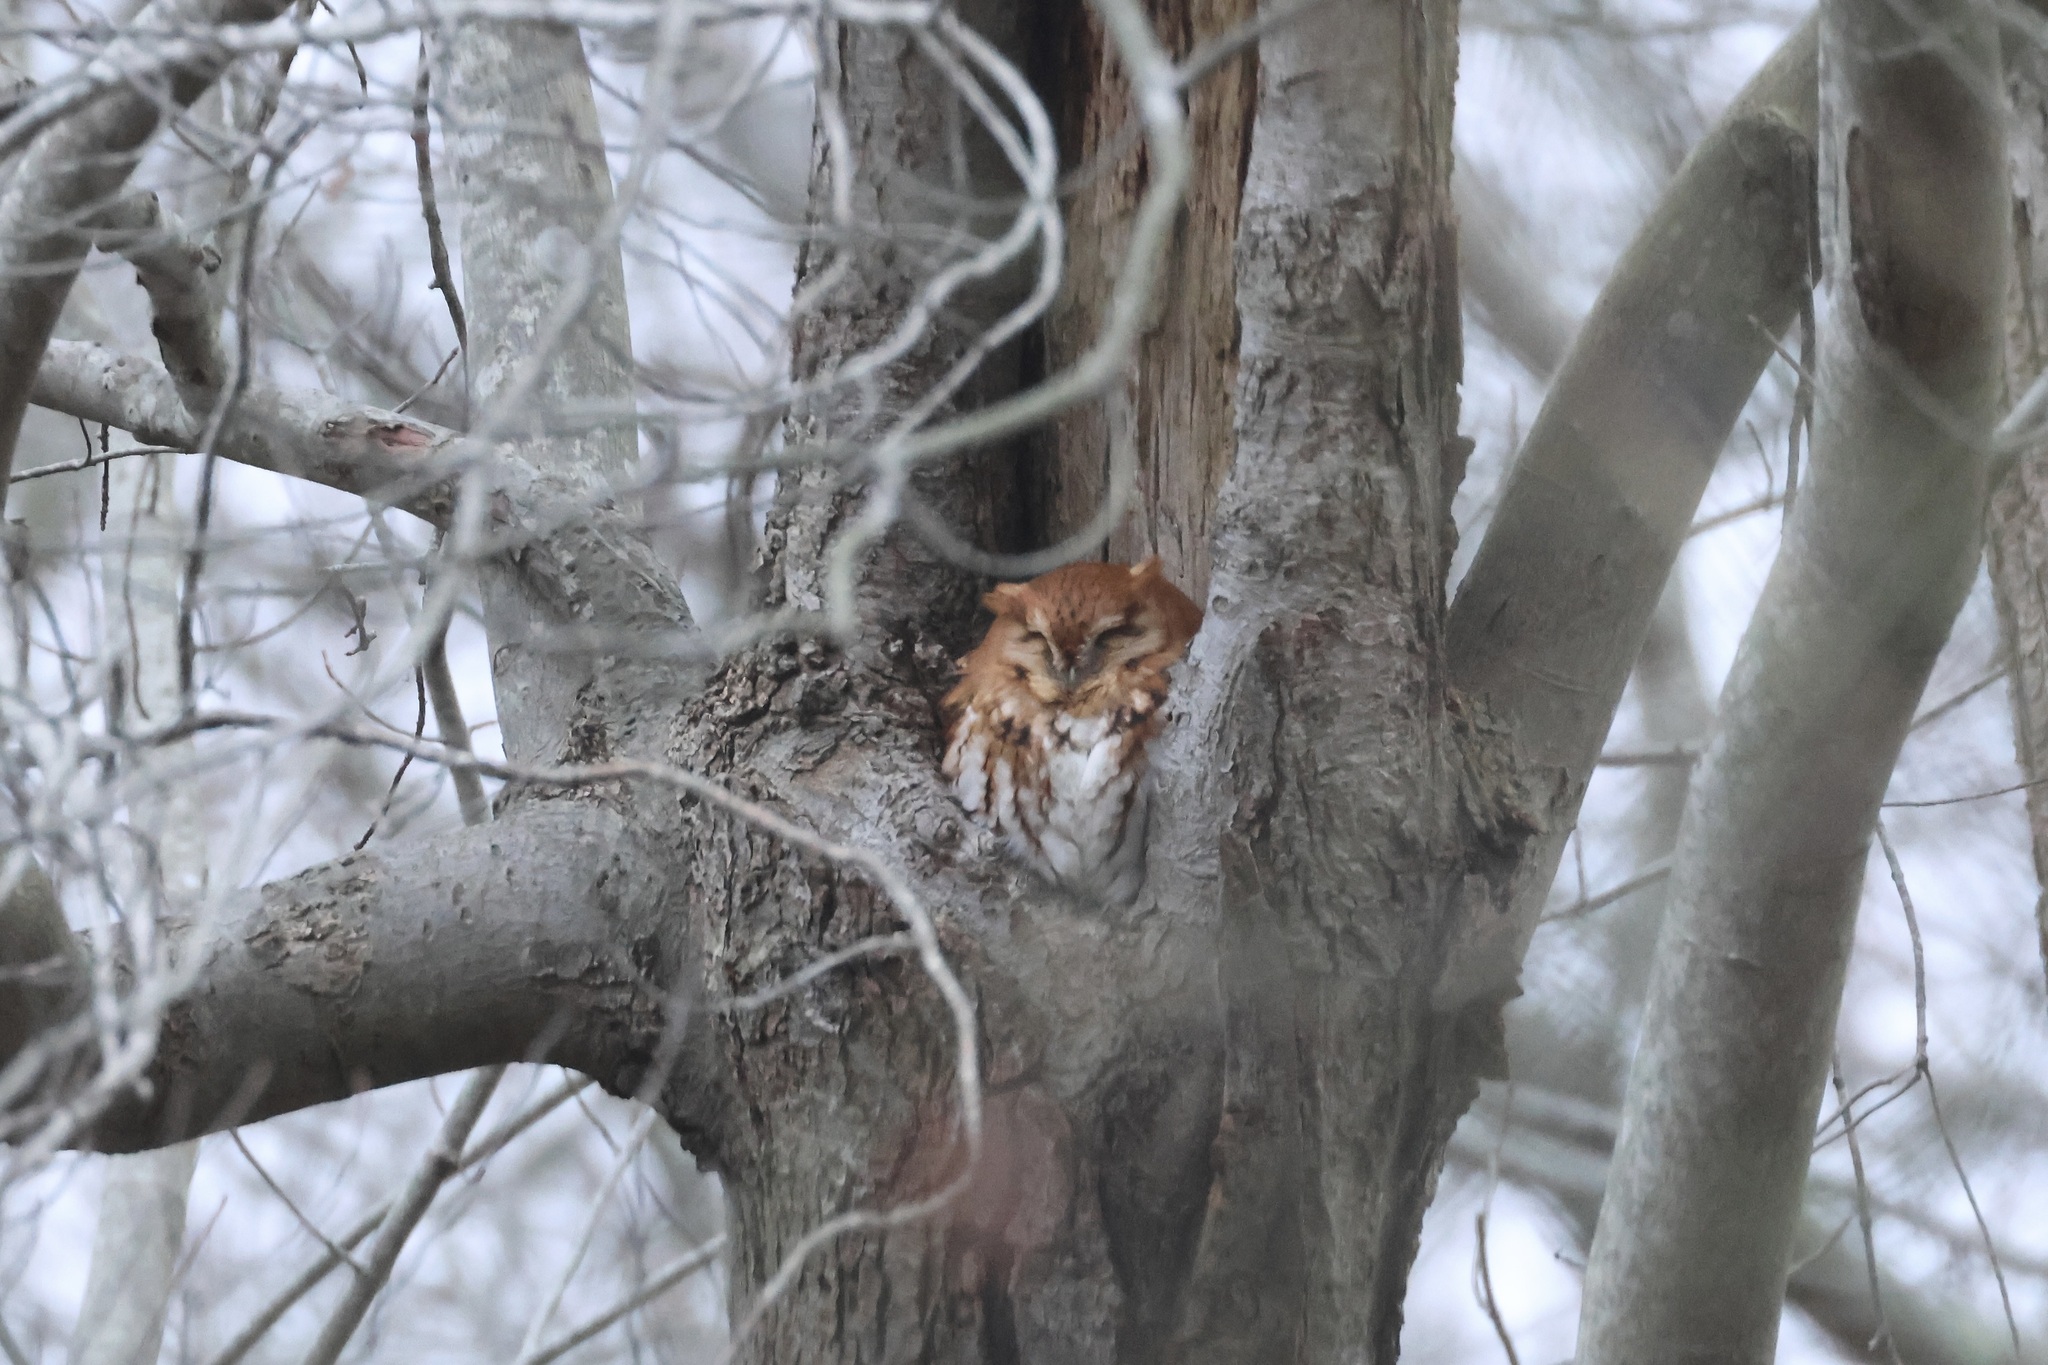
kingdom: Animalia
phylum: Chordata
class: Aves
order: Strigiformes
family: Strigidae
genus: Megascops
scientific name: Megascops asio
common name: Eastern screech-owl
